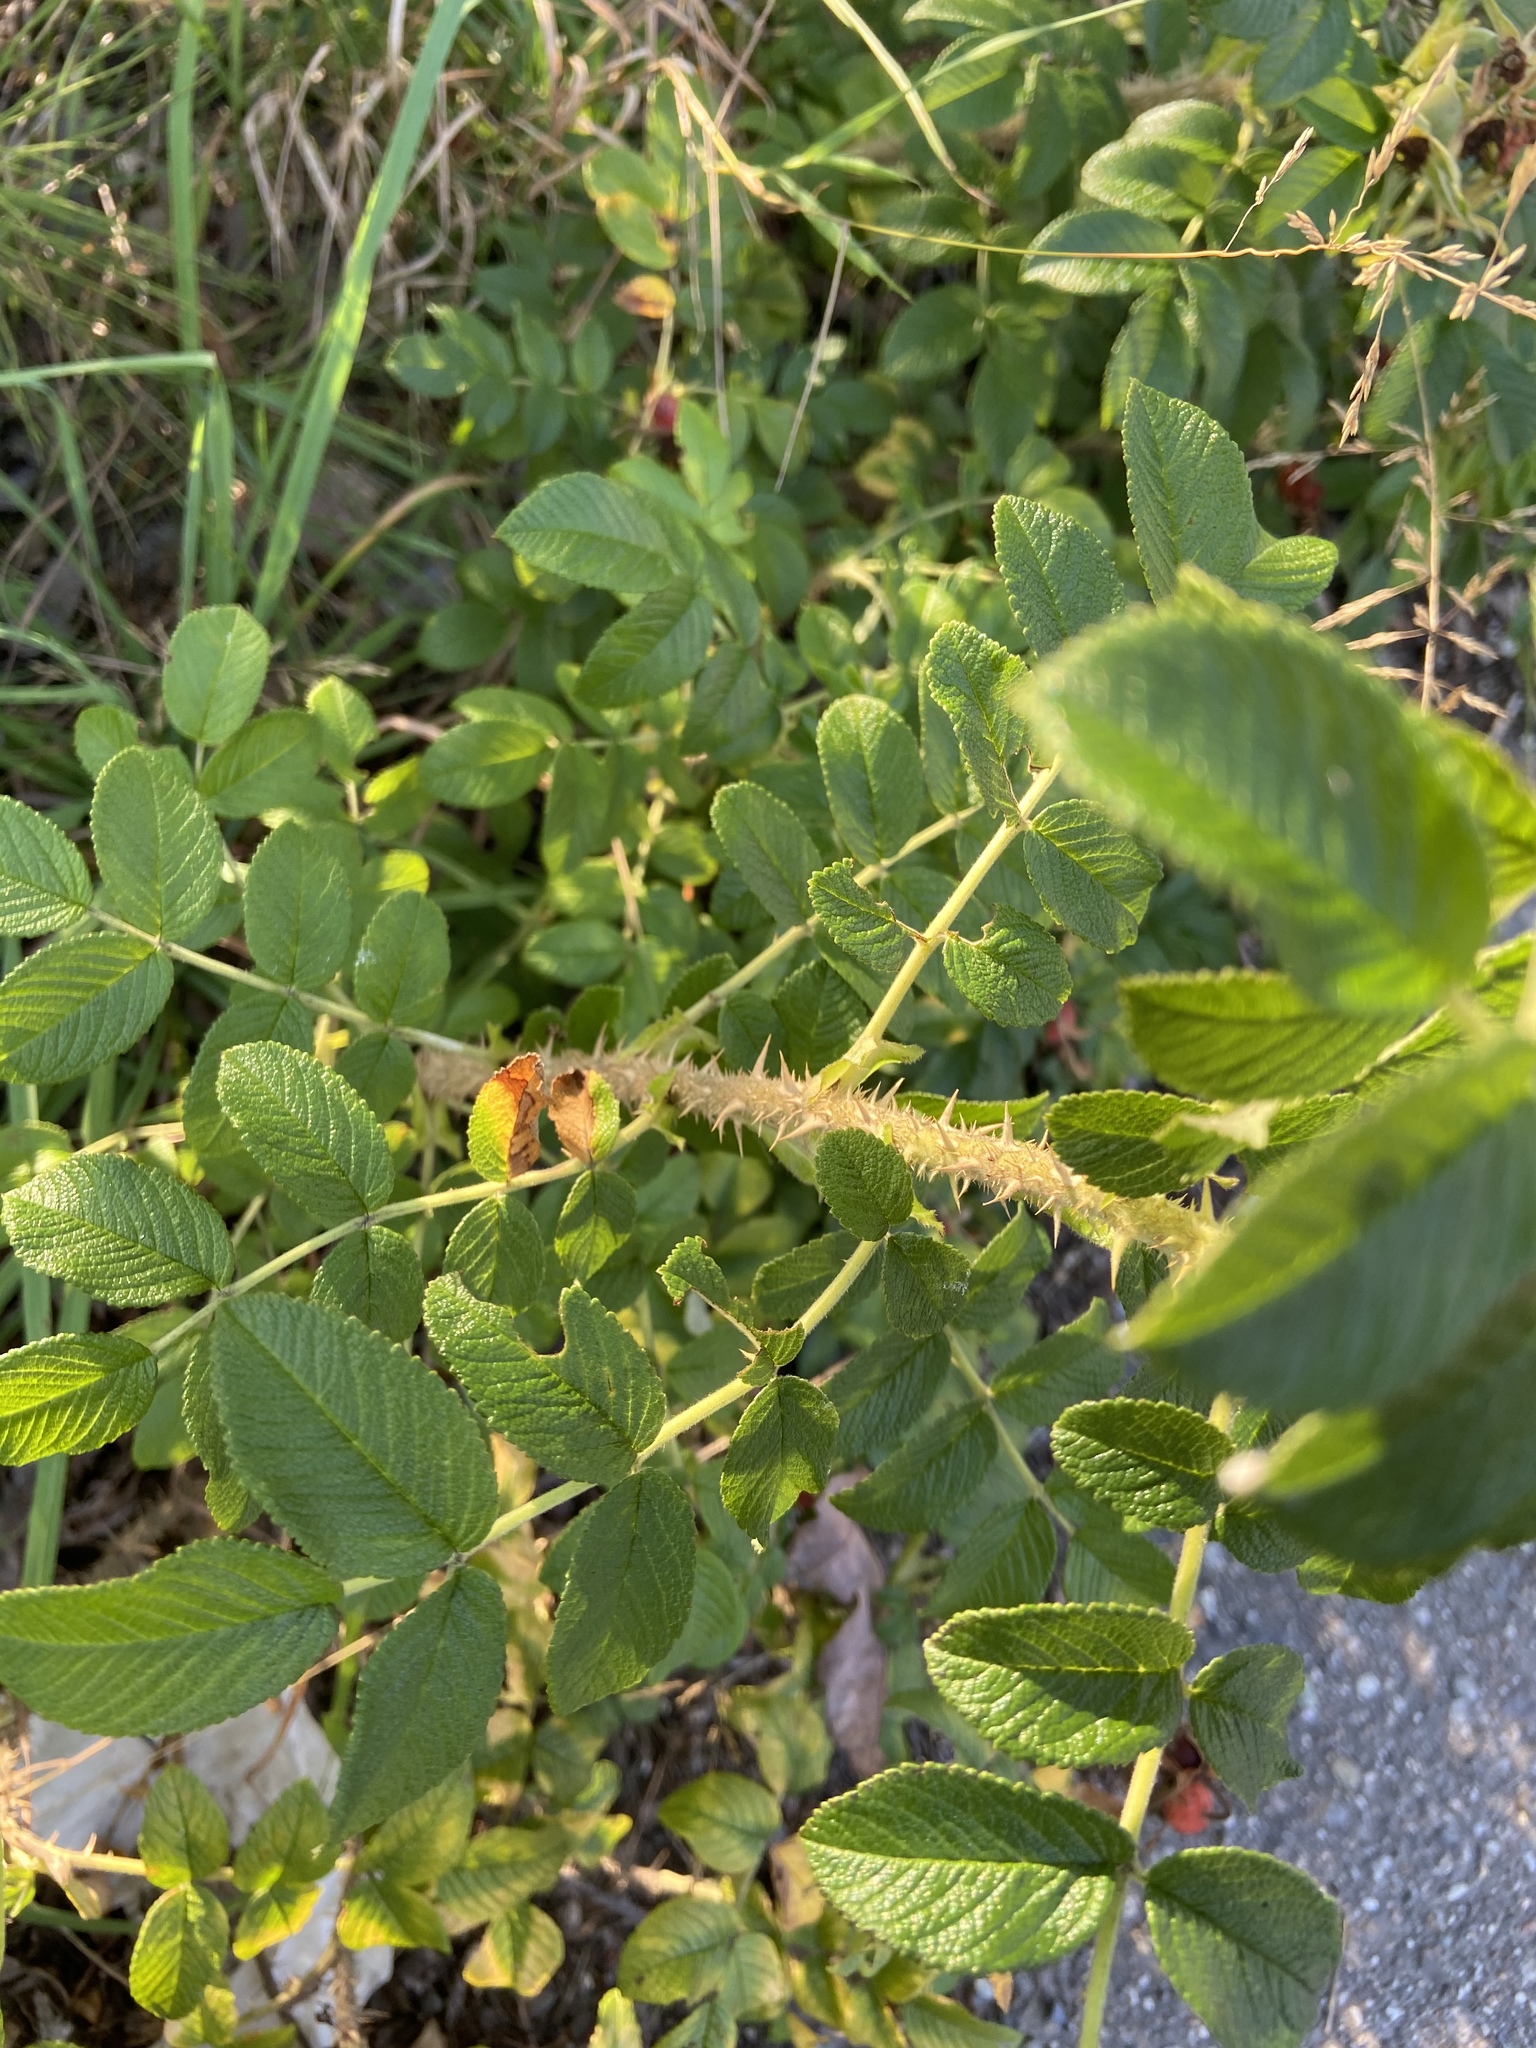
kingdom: Plantae
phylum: Tracheophyta
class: Magnoliopsida
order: Rosales
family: Rosaceae
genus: Rosa
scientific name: Rosa rugosa
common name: Japanese rose
